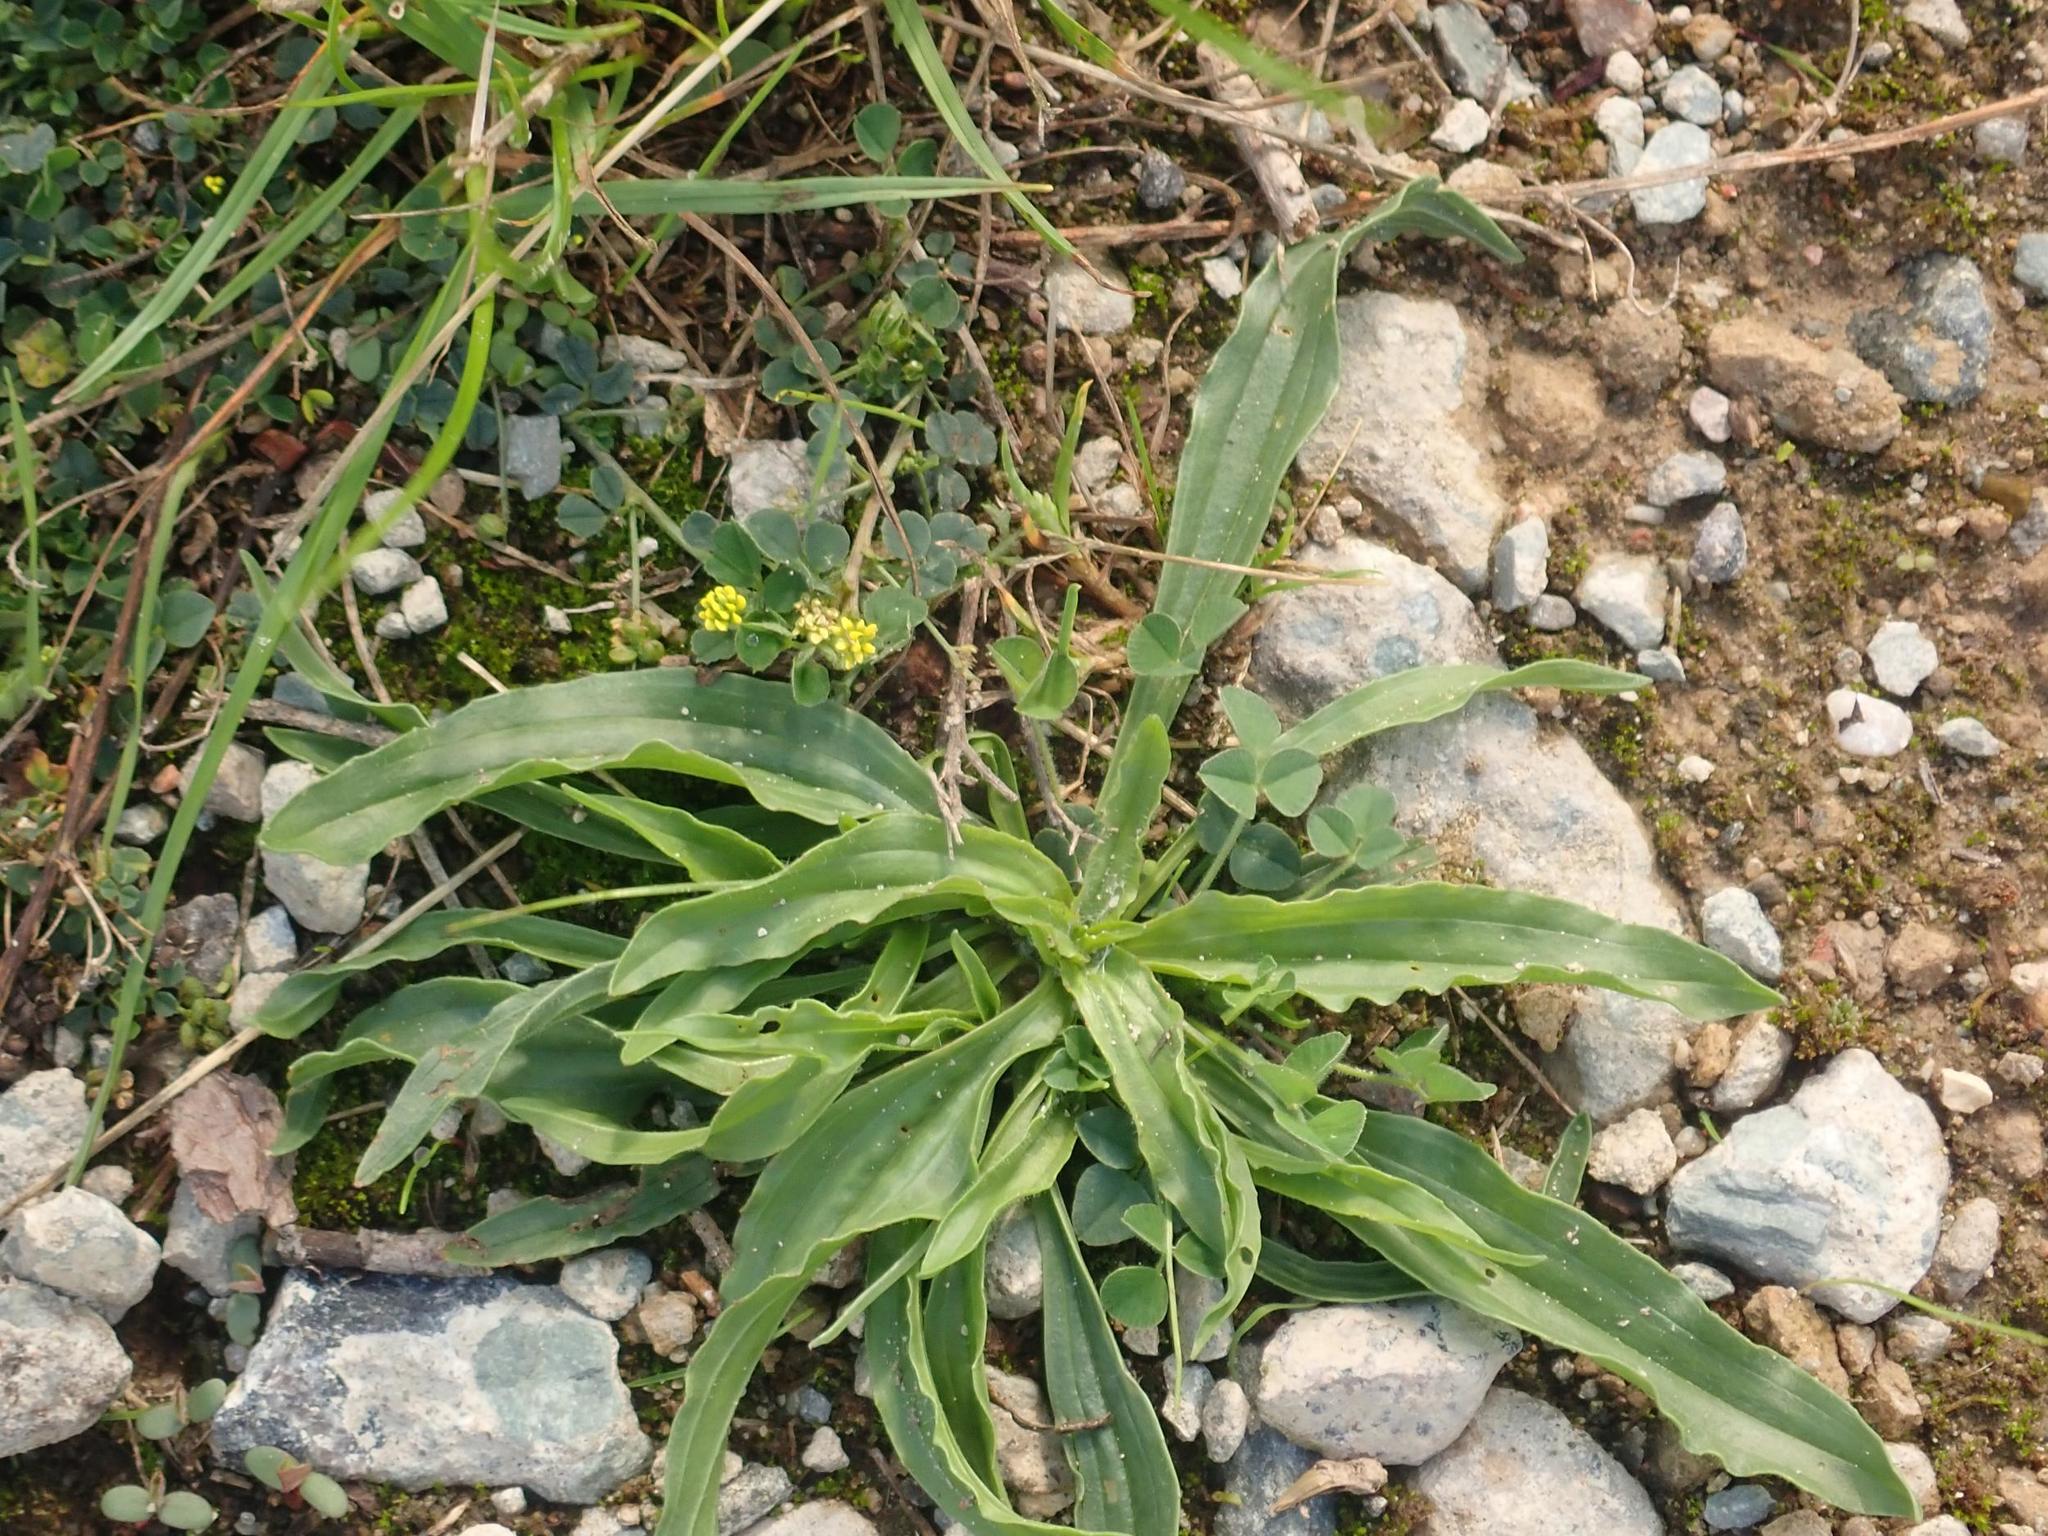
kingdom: Plantae
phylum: Tracheophyta
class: Magnoliopsida
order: Lamiales
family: Plantaginaceae
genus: Plantago
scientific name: Plantago lanceolata
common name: Ribwort plantain
